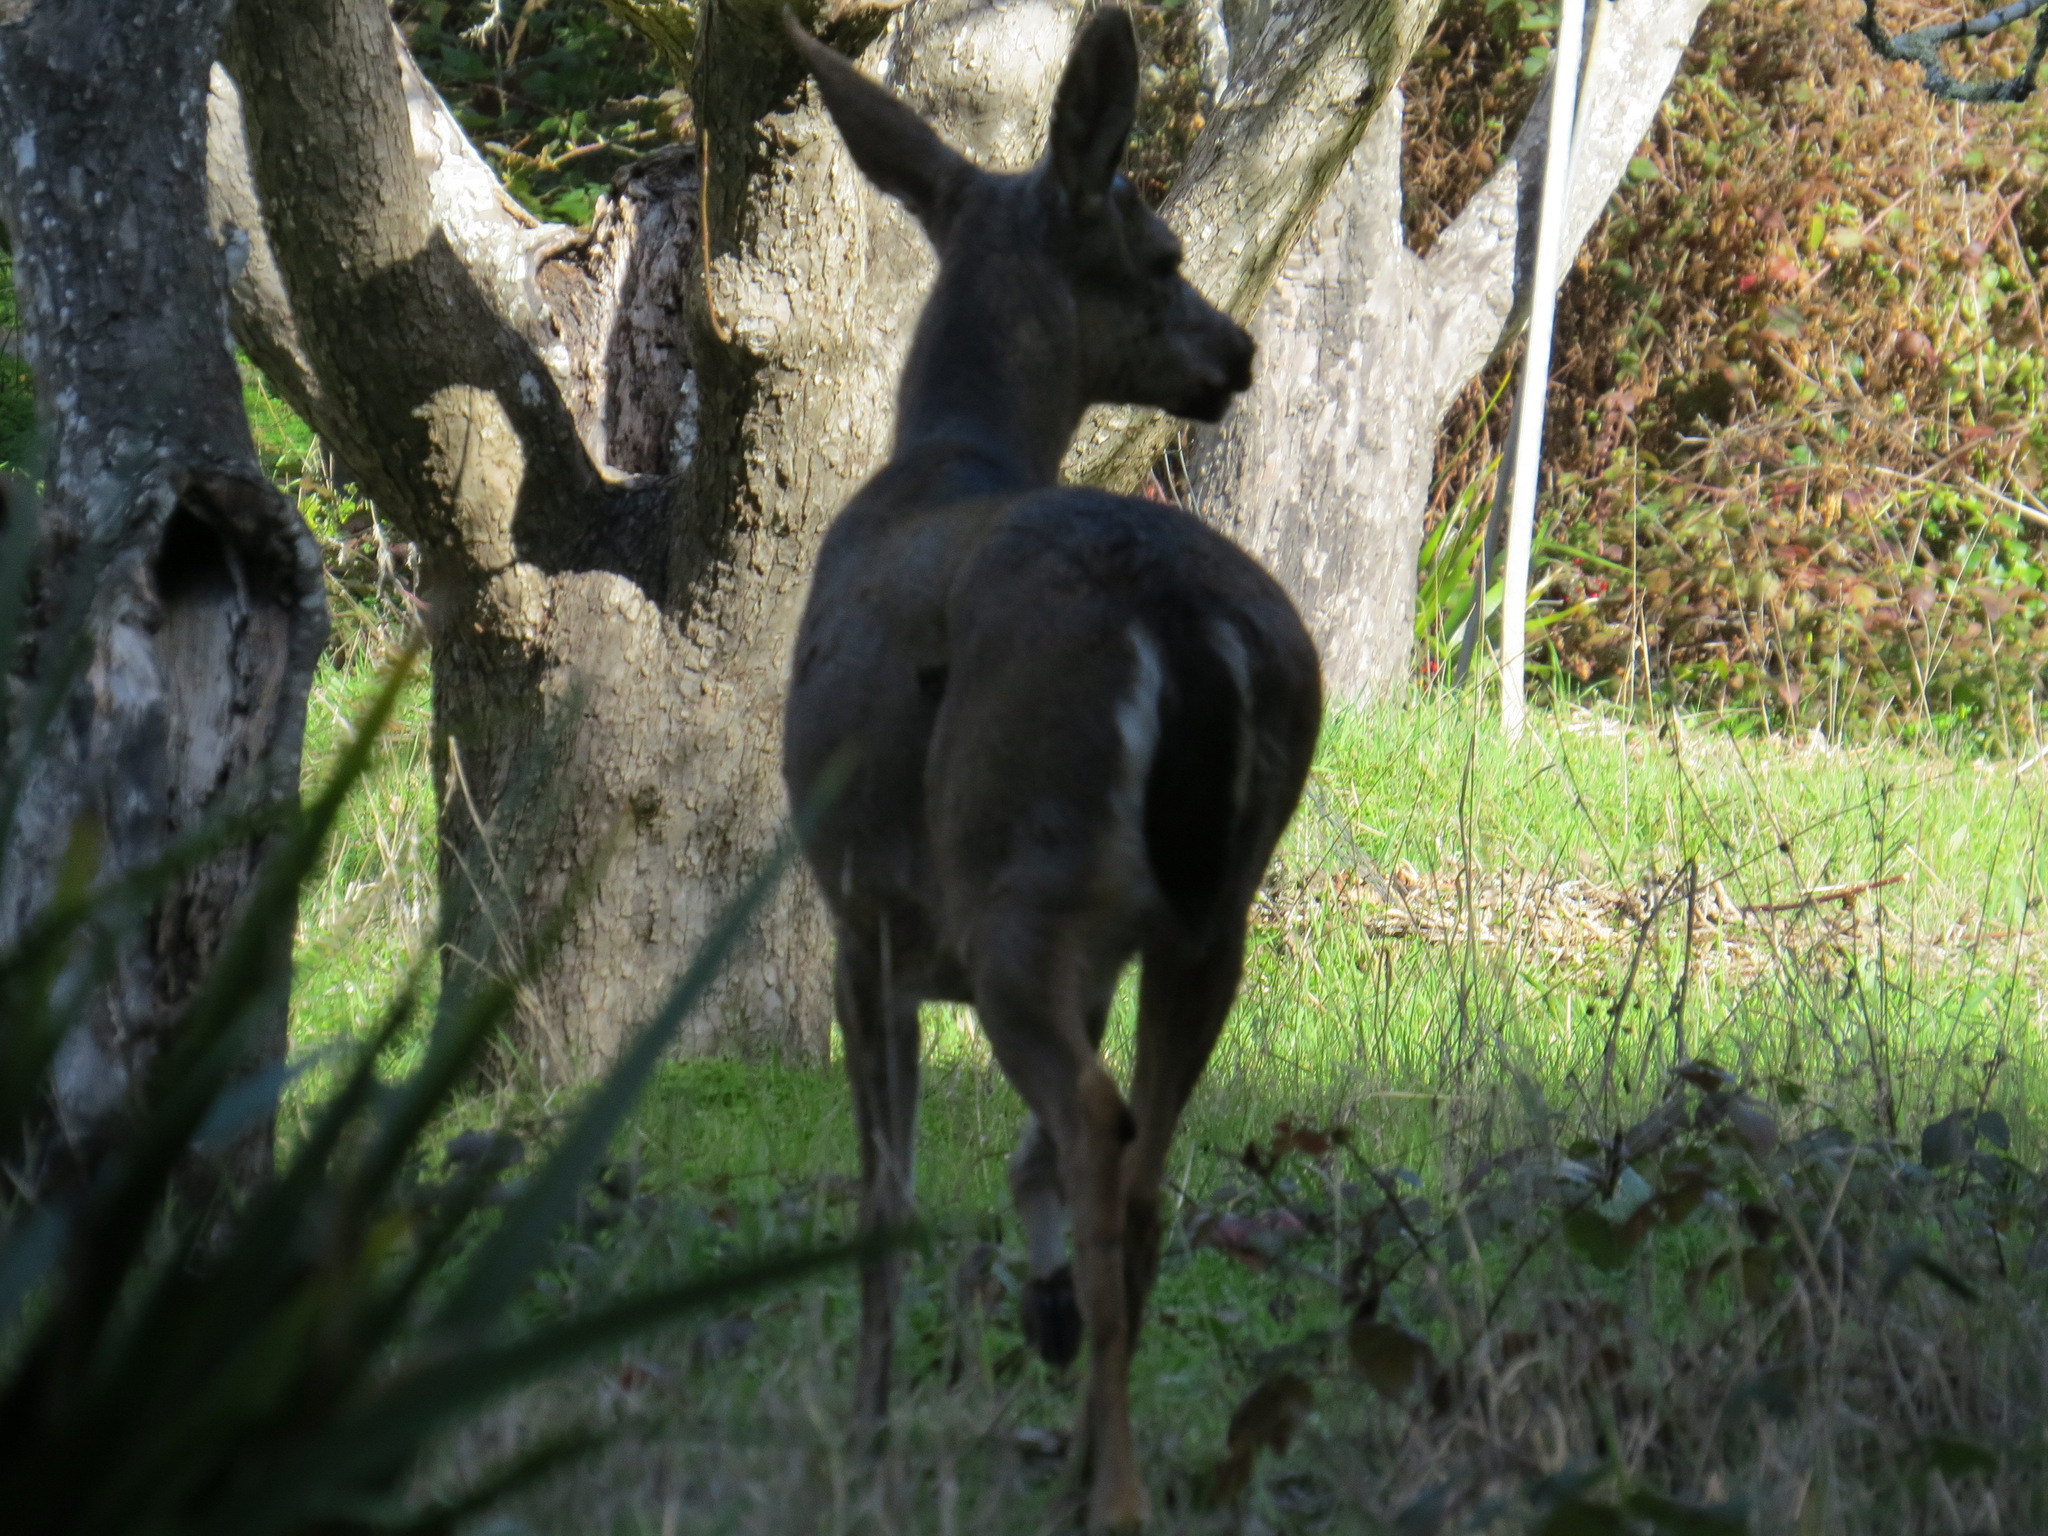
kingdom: Animalia
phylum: Chordata
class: Mammalia
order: Artiodactyla
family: Cervidae
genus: Odocoileus
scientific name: Odocoileus hemionus
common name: Mule deer
